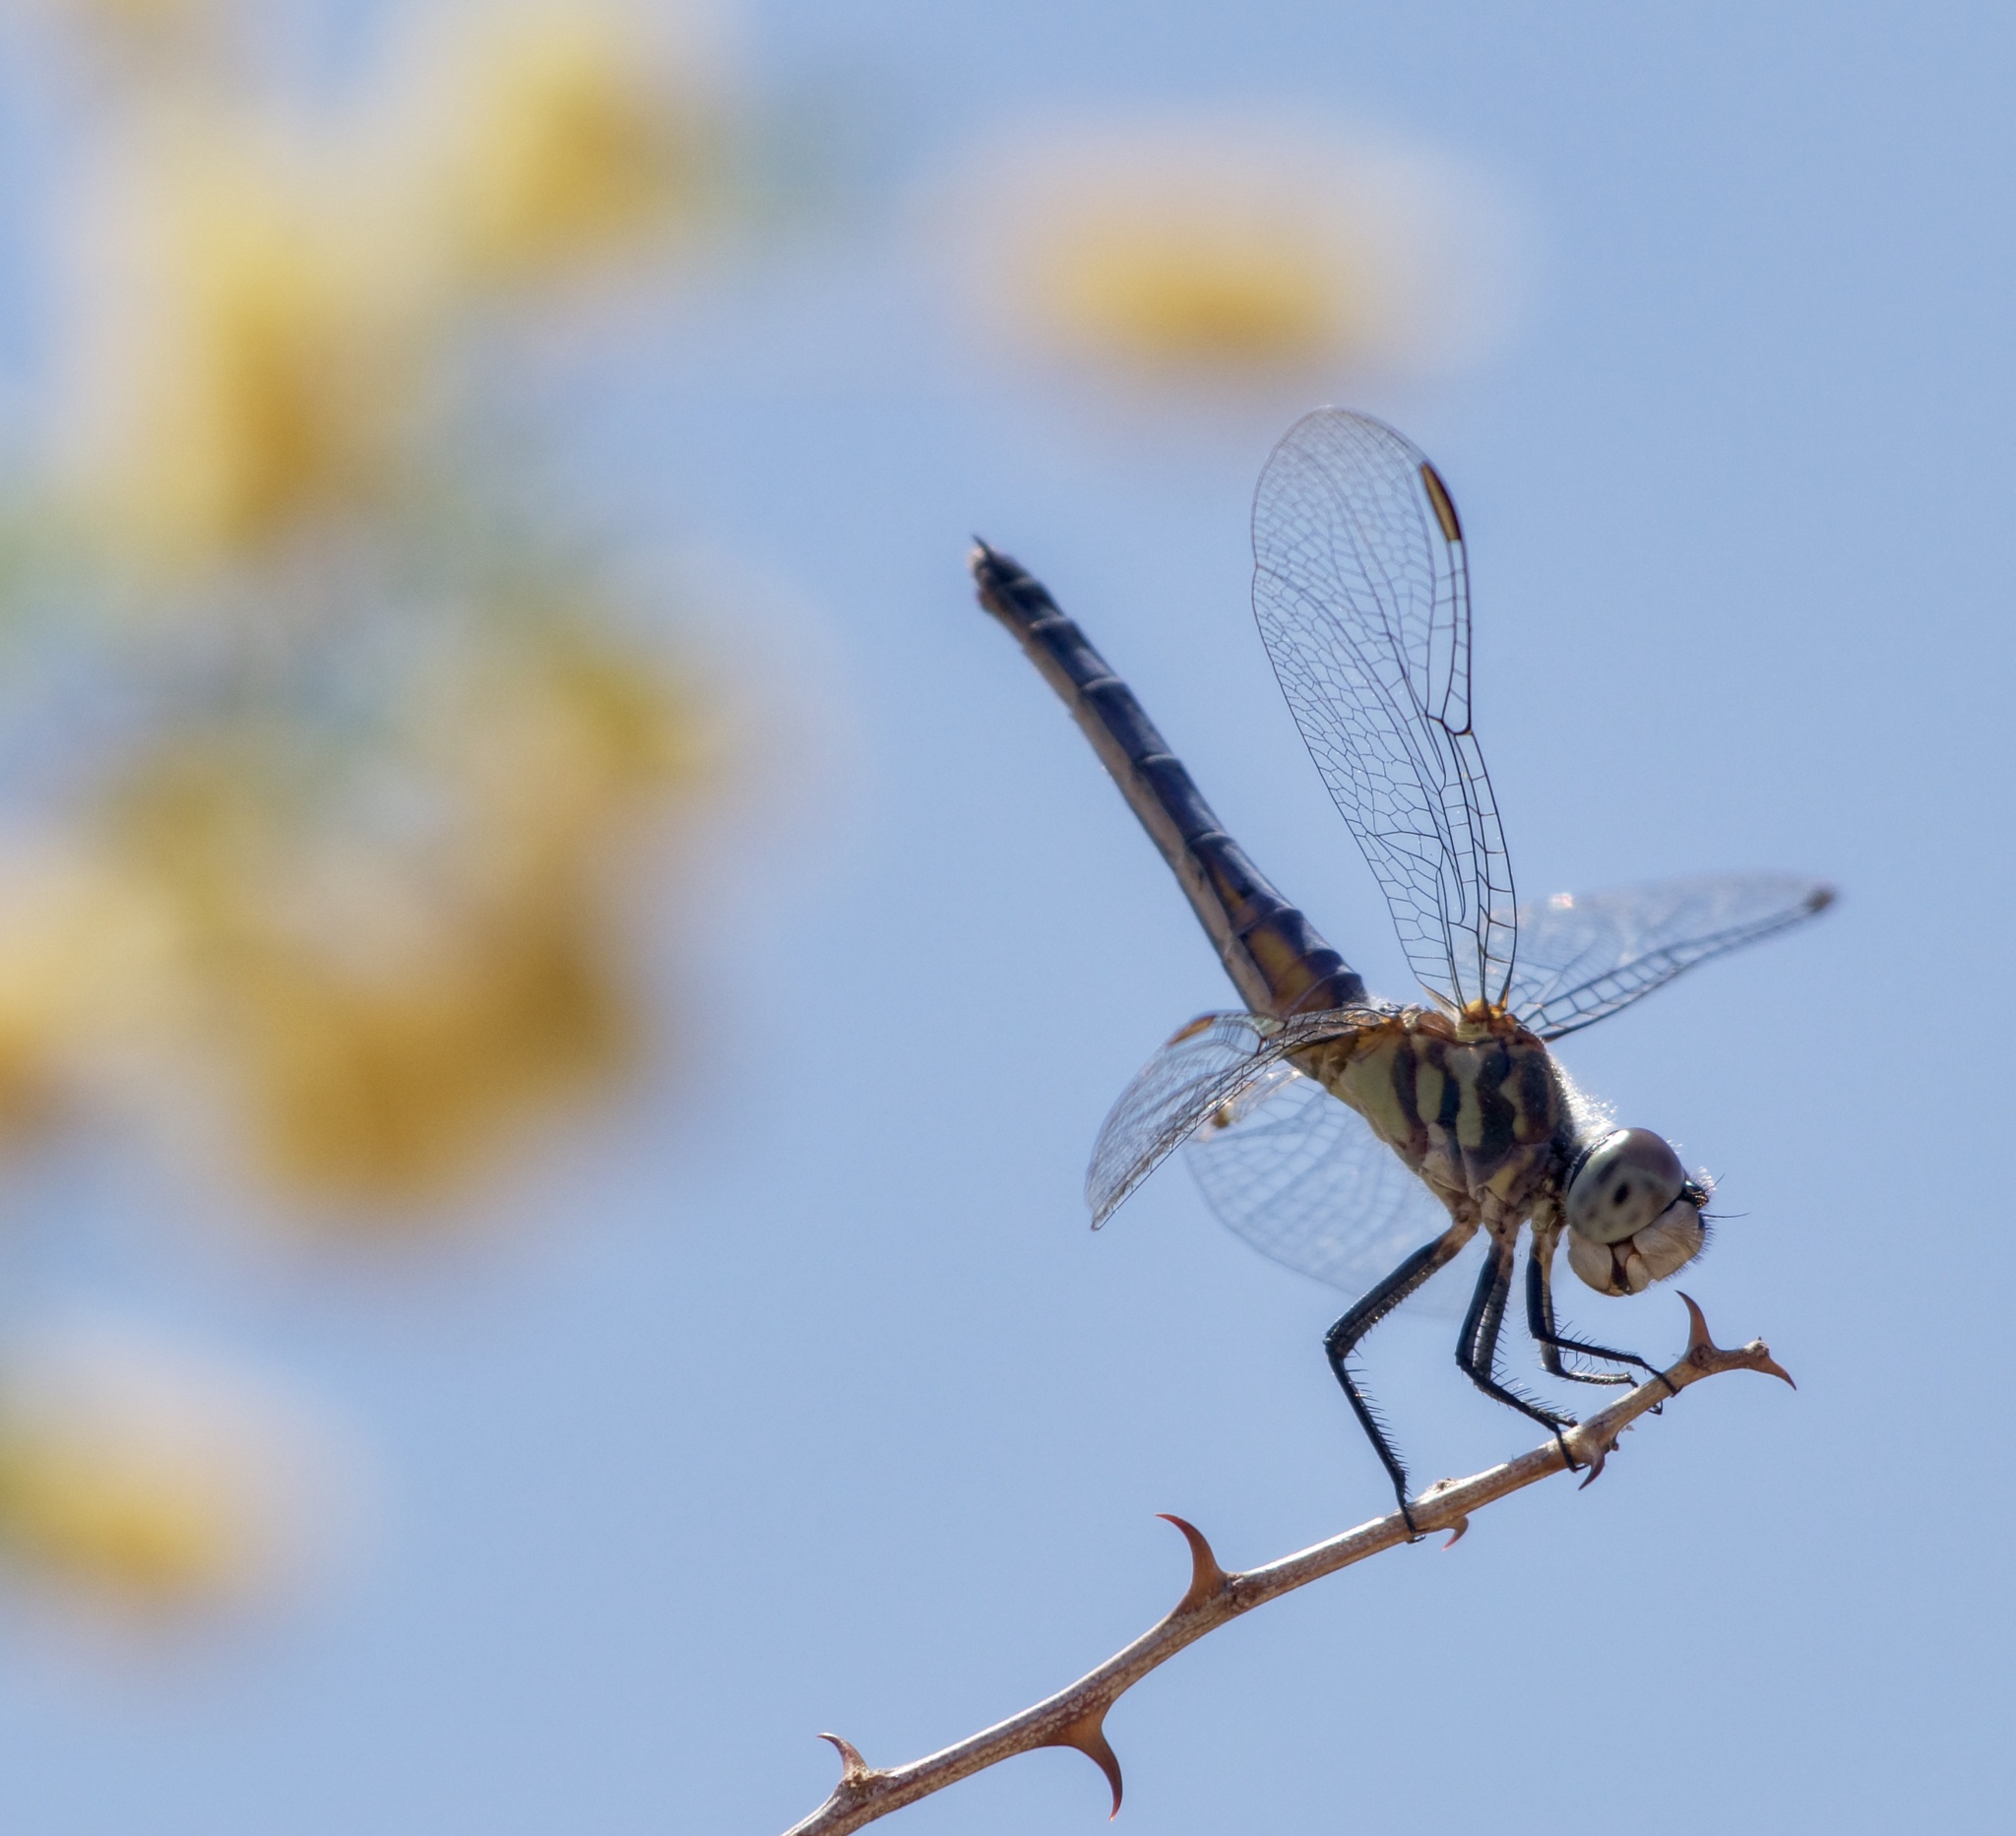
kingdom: Animalia
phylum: Arthropoda
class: Insecta
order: Odonata
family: Libellulidae
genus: Pachydiplax
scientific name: Pachydiplax longipennis
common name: Blue dasher
